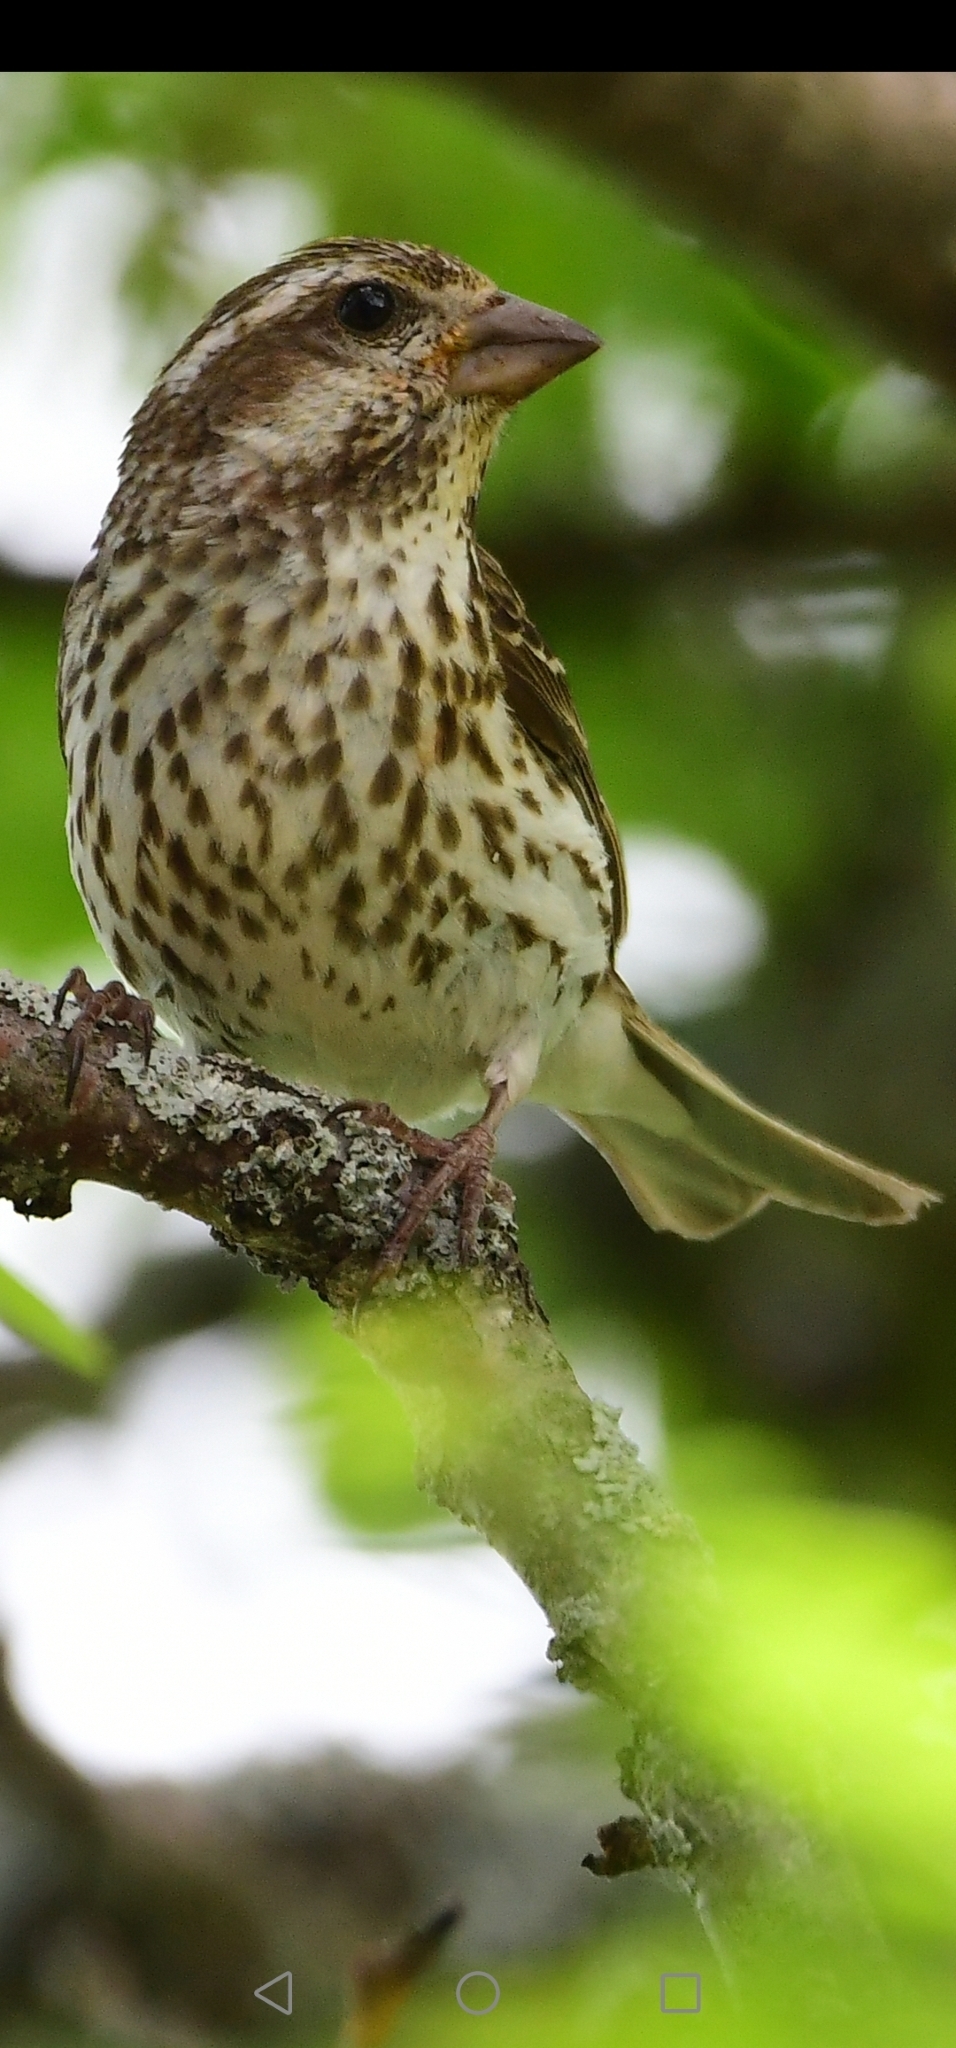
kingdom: Animalia
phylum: Chordata
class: Aves
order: Passeriformes
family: Fringillidae
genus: Haemorhous
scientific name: Haemorhous purpureus
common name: Purple finch
